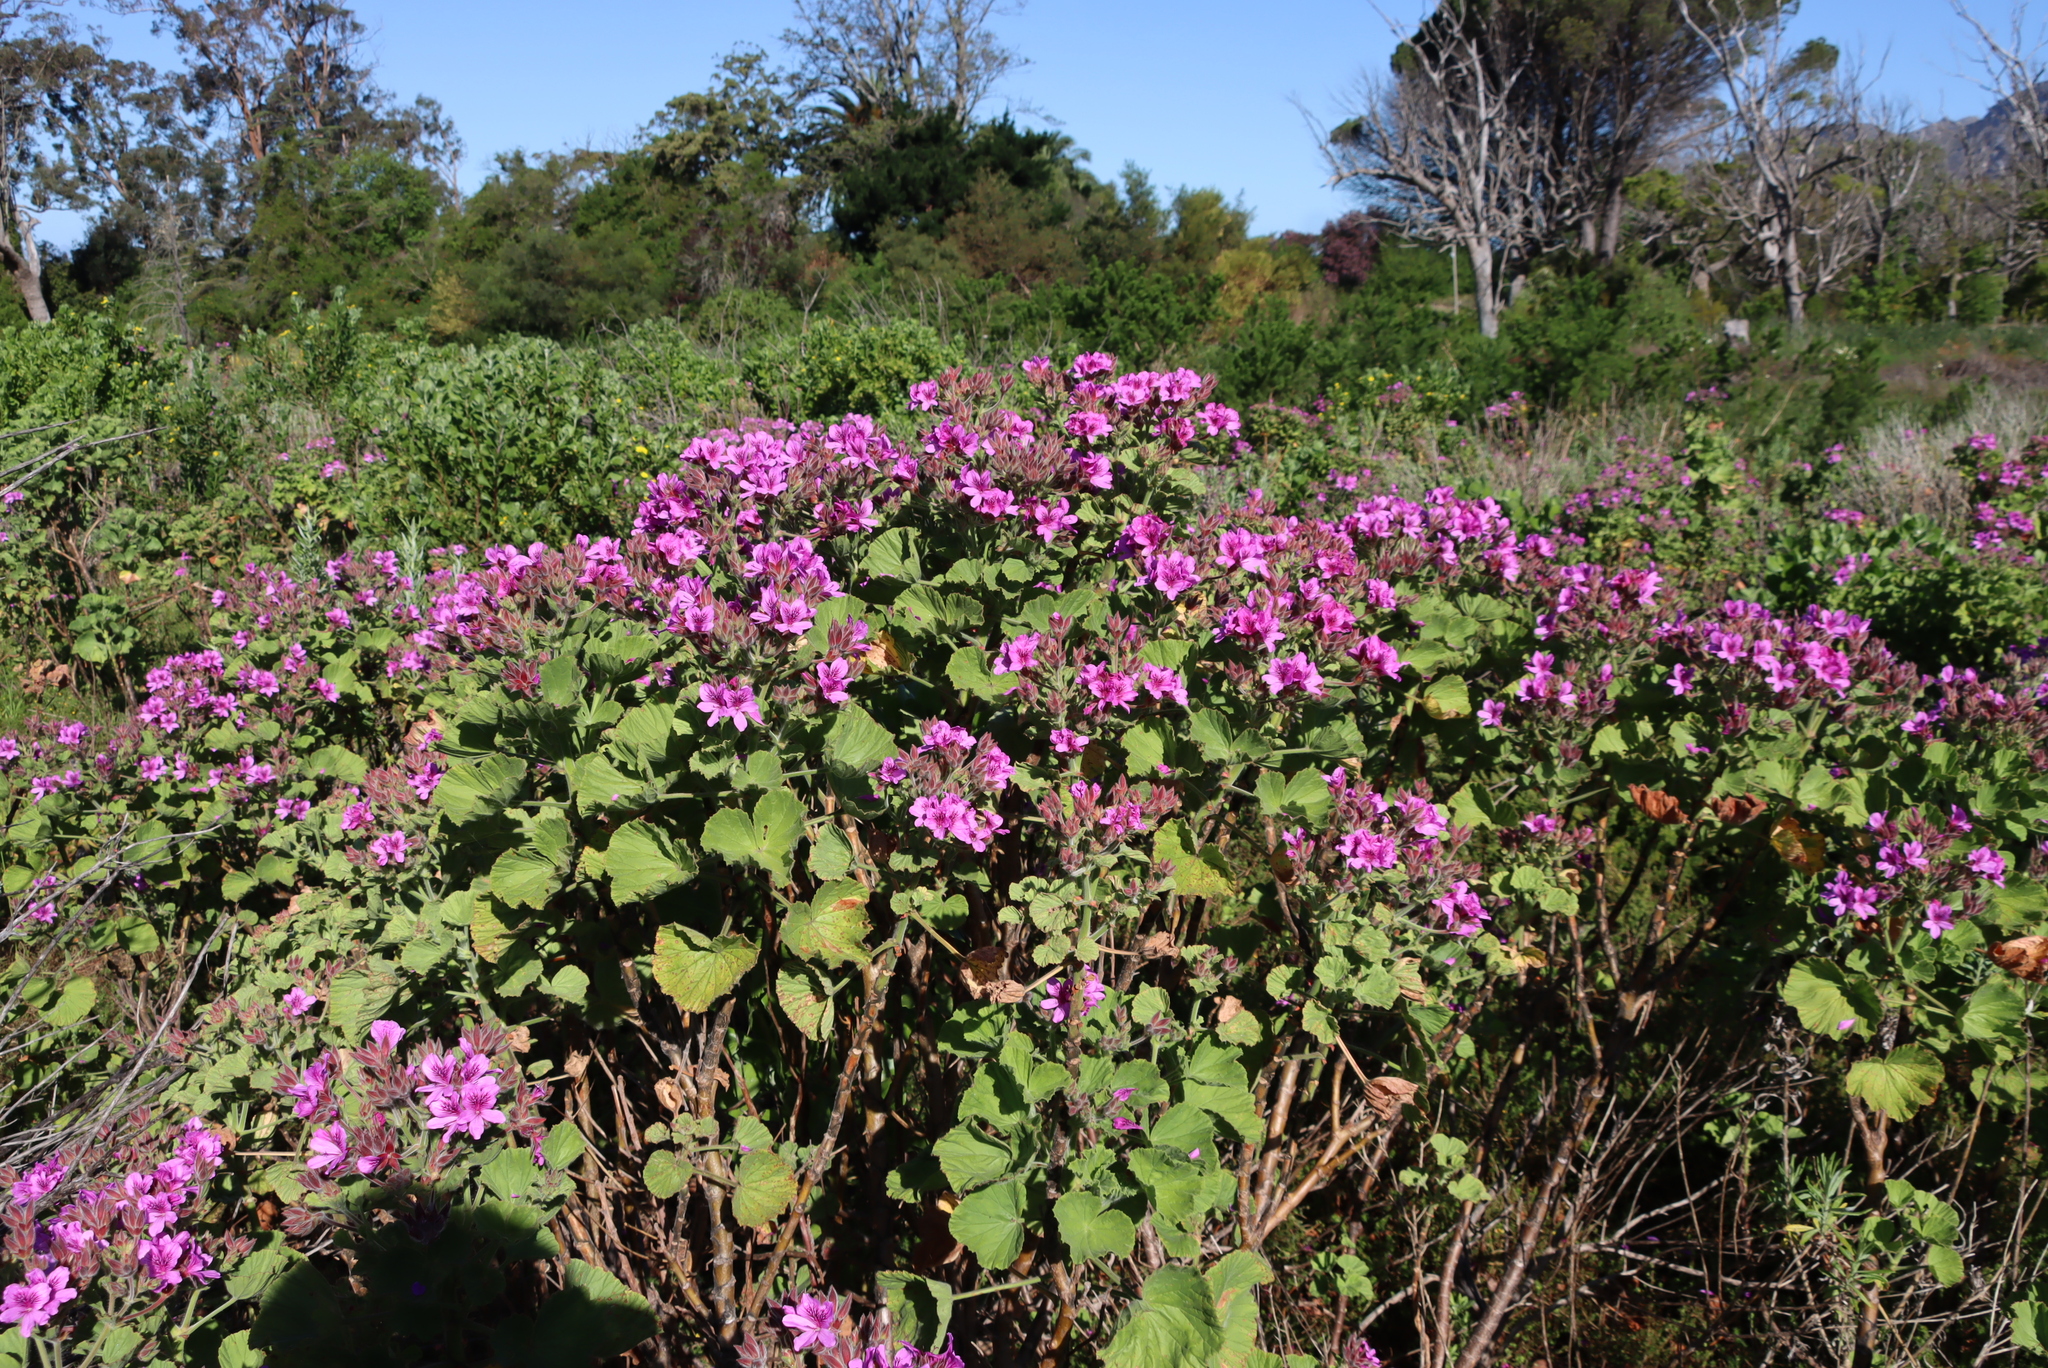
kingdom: Plantae
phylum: Tracheophyta
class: Magnoliopsida
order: Geraniales
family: Geraniaceae
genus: Pelargonium
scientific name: Pelargonium cucullatum
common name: Tree pelargonium
